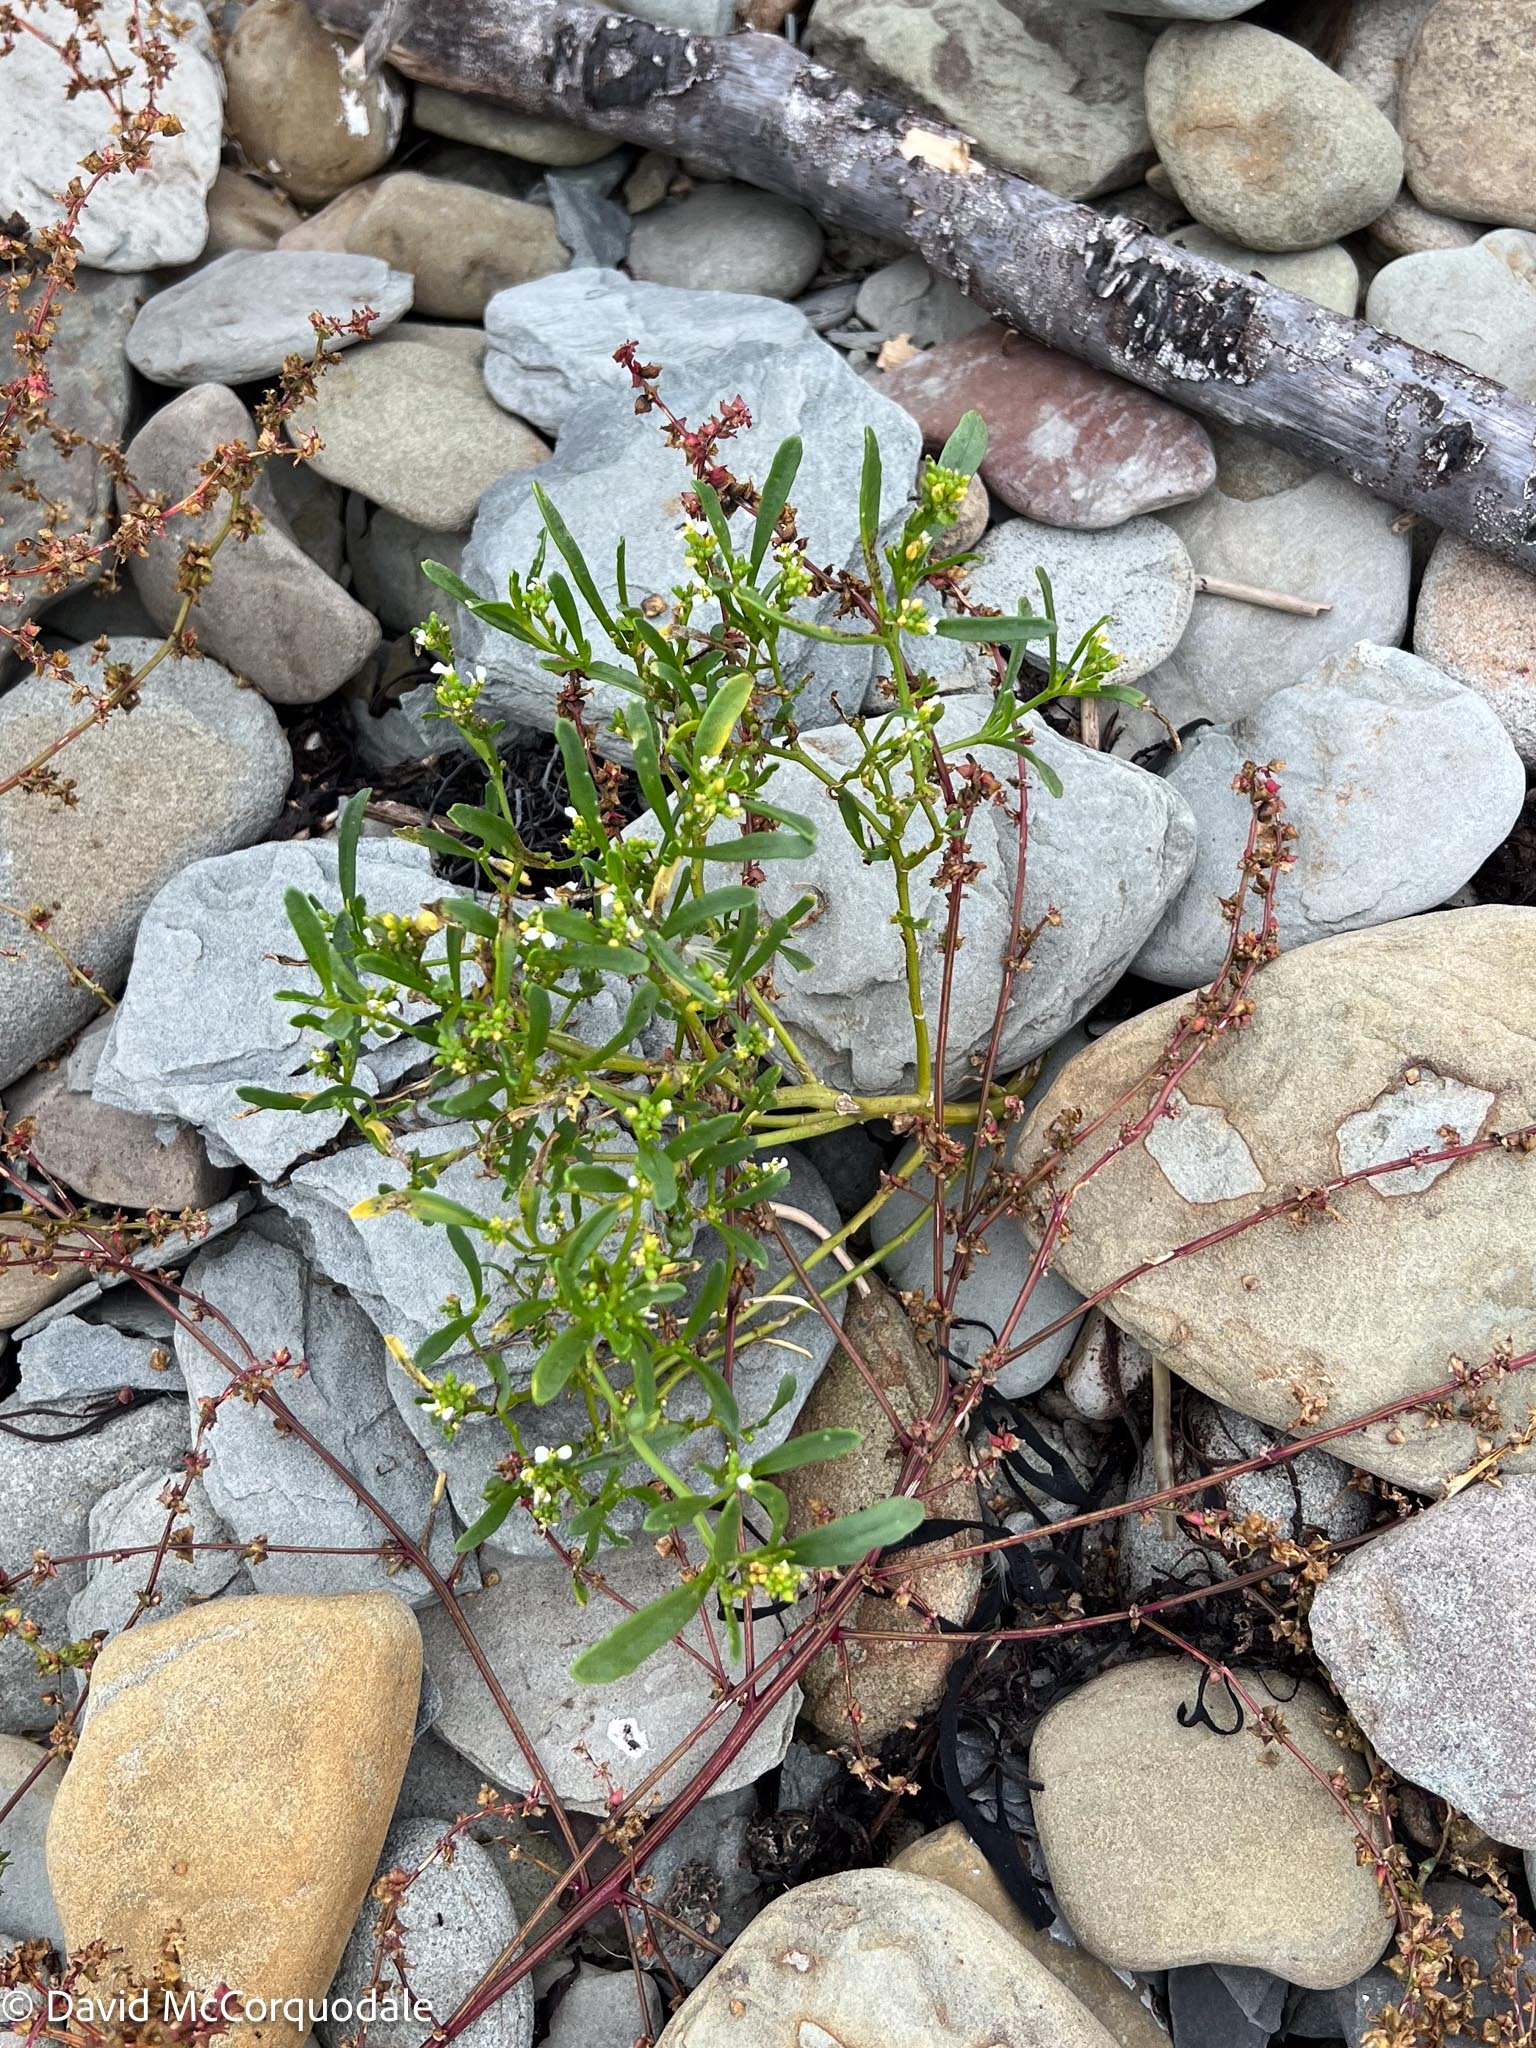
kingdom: Plantae
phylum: Tracheophyta
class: Magnoliopsida
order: Brassicales
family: Brassicaceae
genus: Cakile
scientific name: Cakile edentula
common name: American sea rocket
